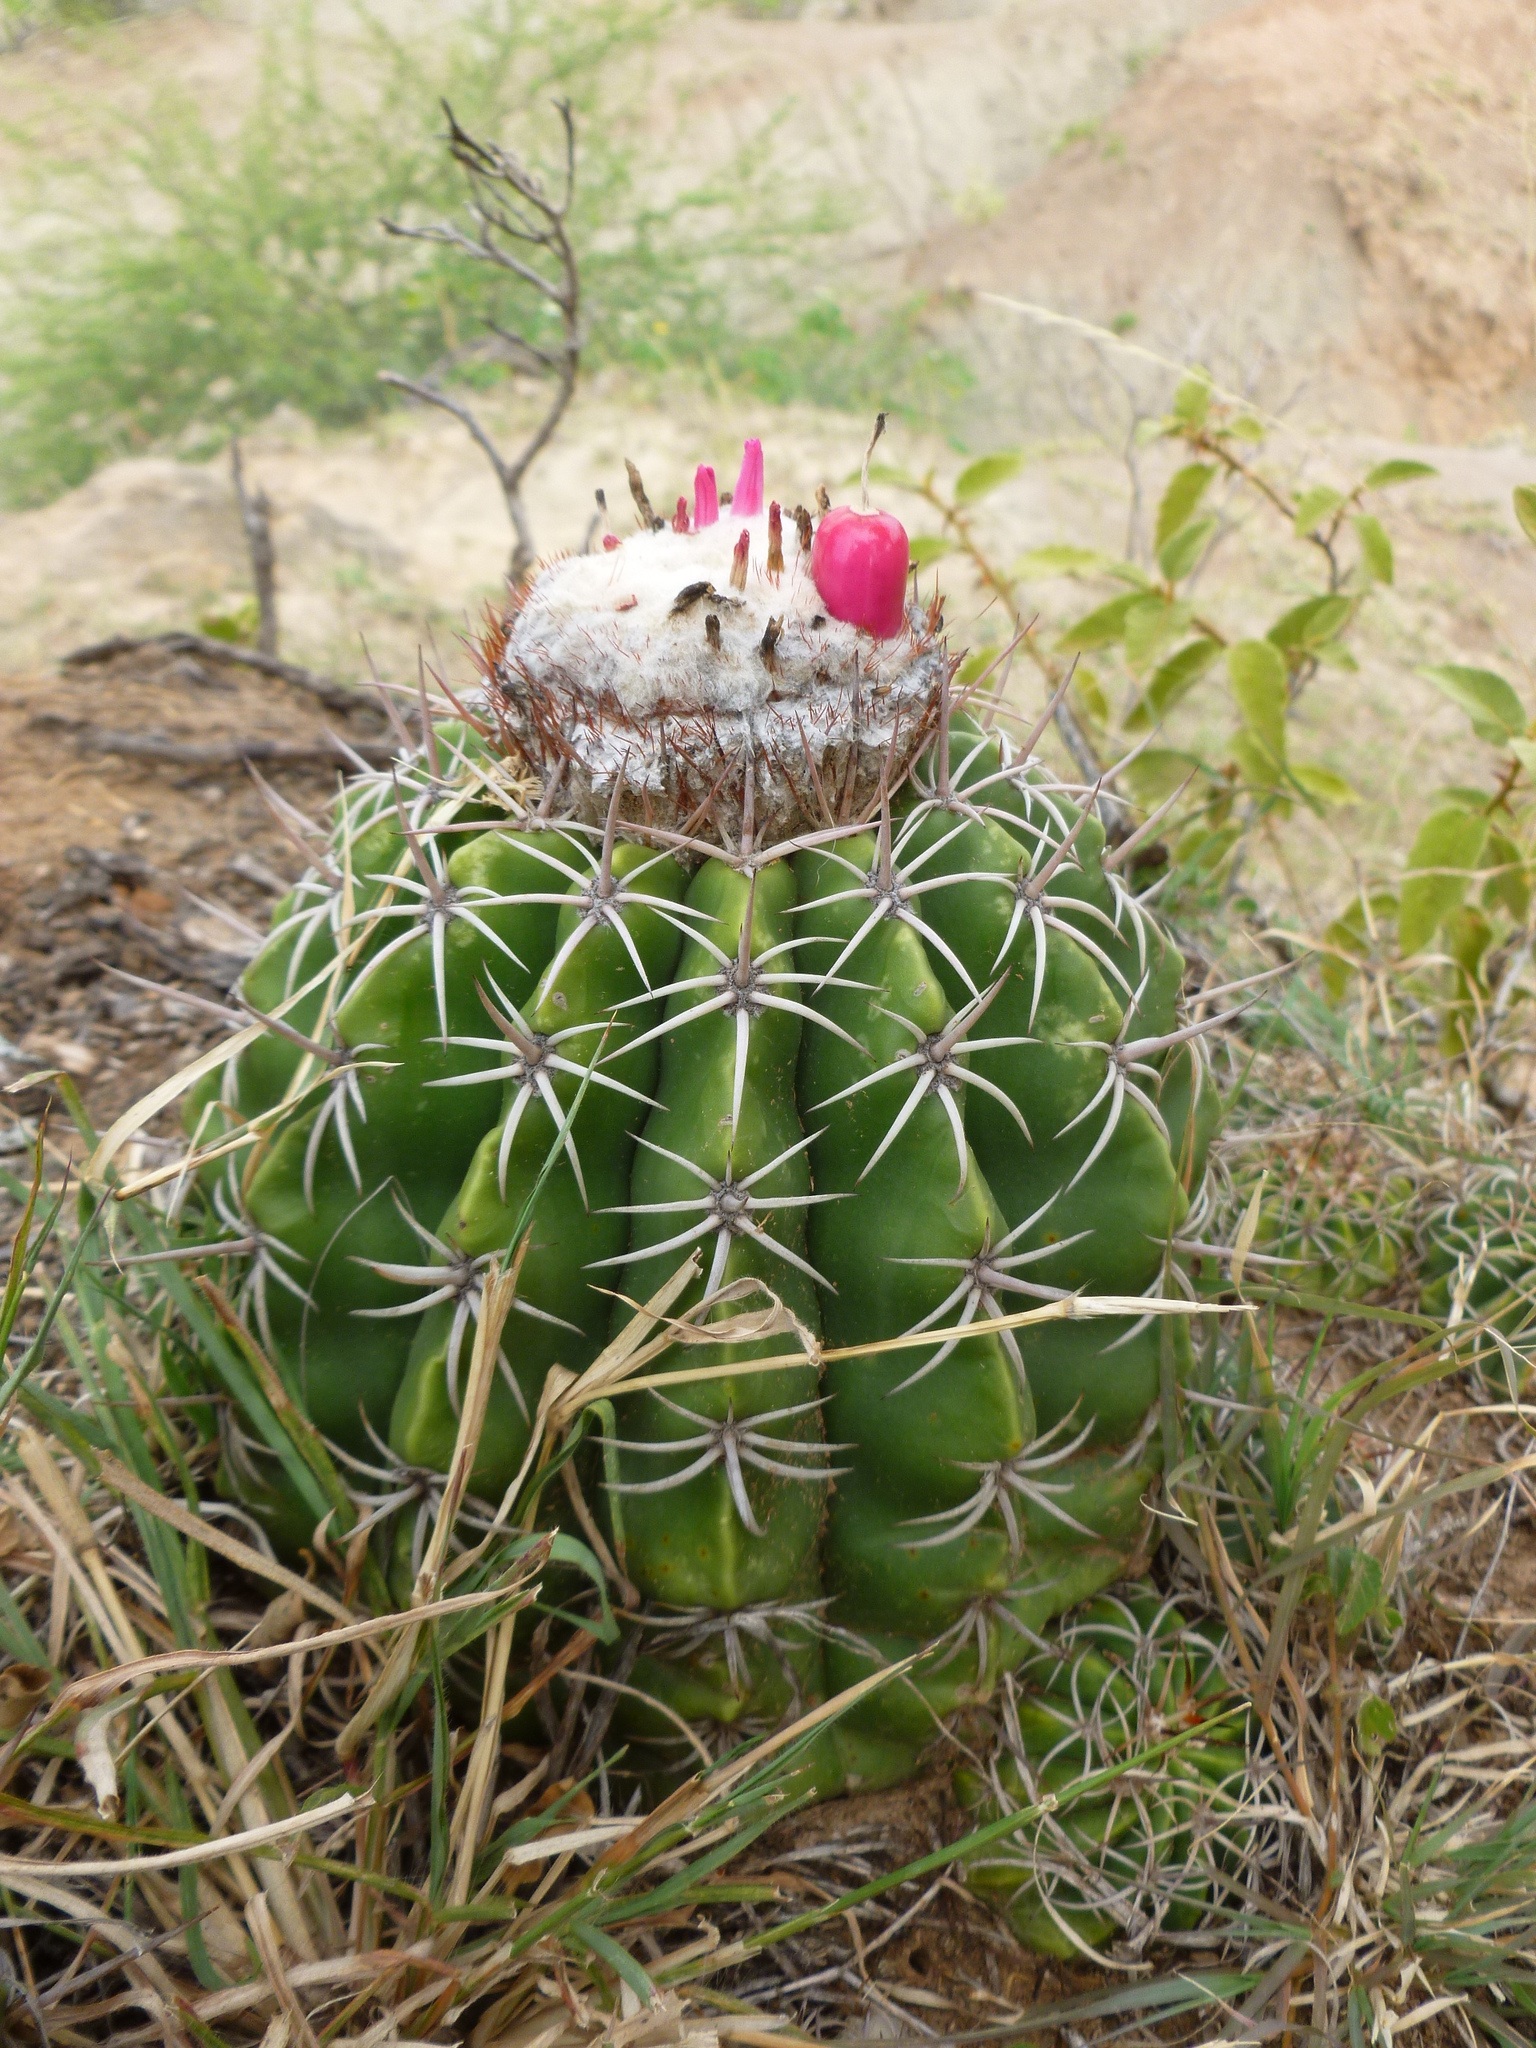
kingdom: Plantae
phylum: Tracheophyta
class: Magnoliopsida
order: Caryophyllales
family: Cactaceae
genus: Melocactus
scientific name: Melocactus curvispinus
